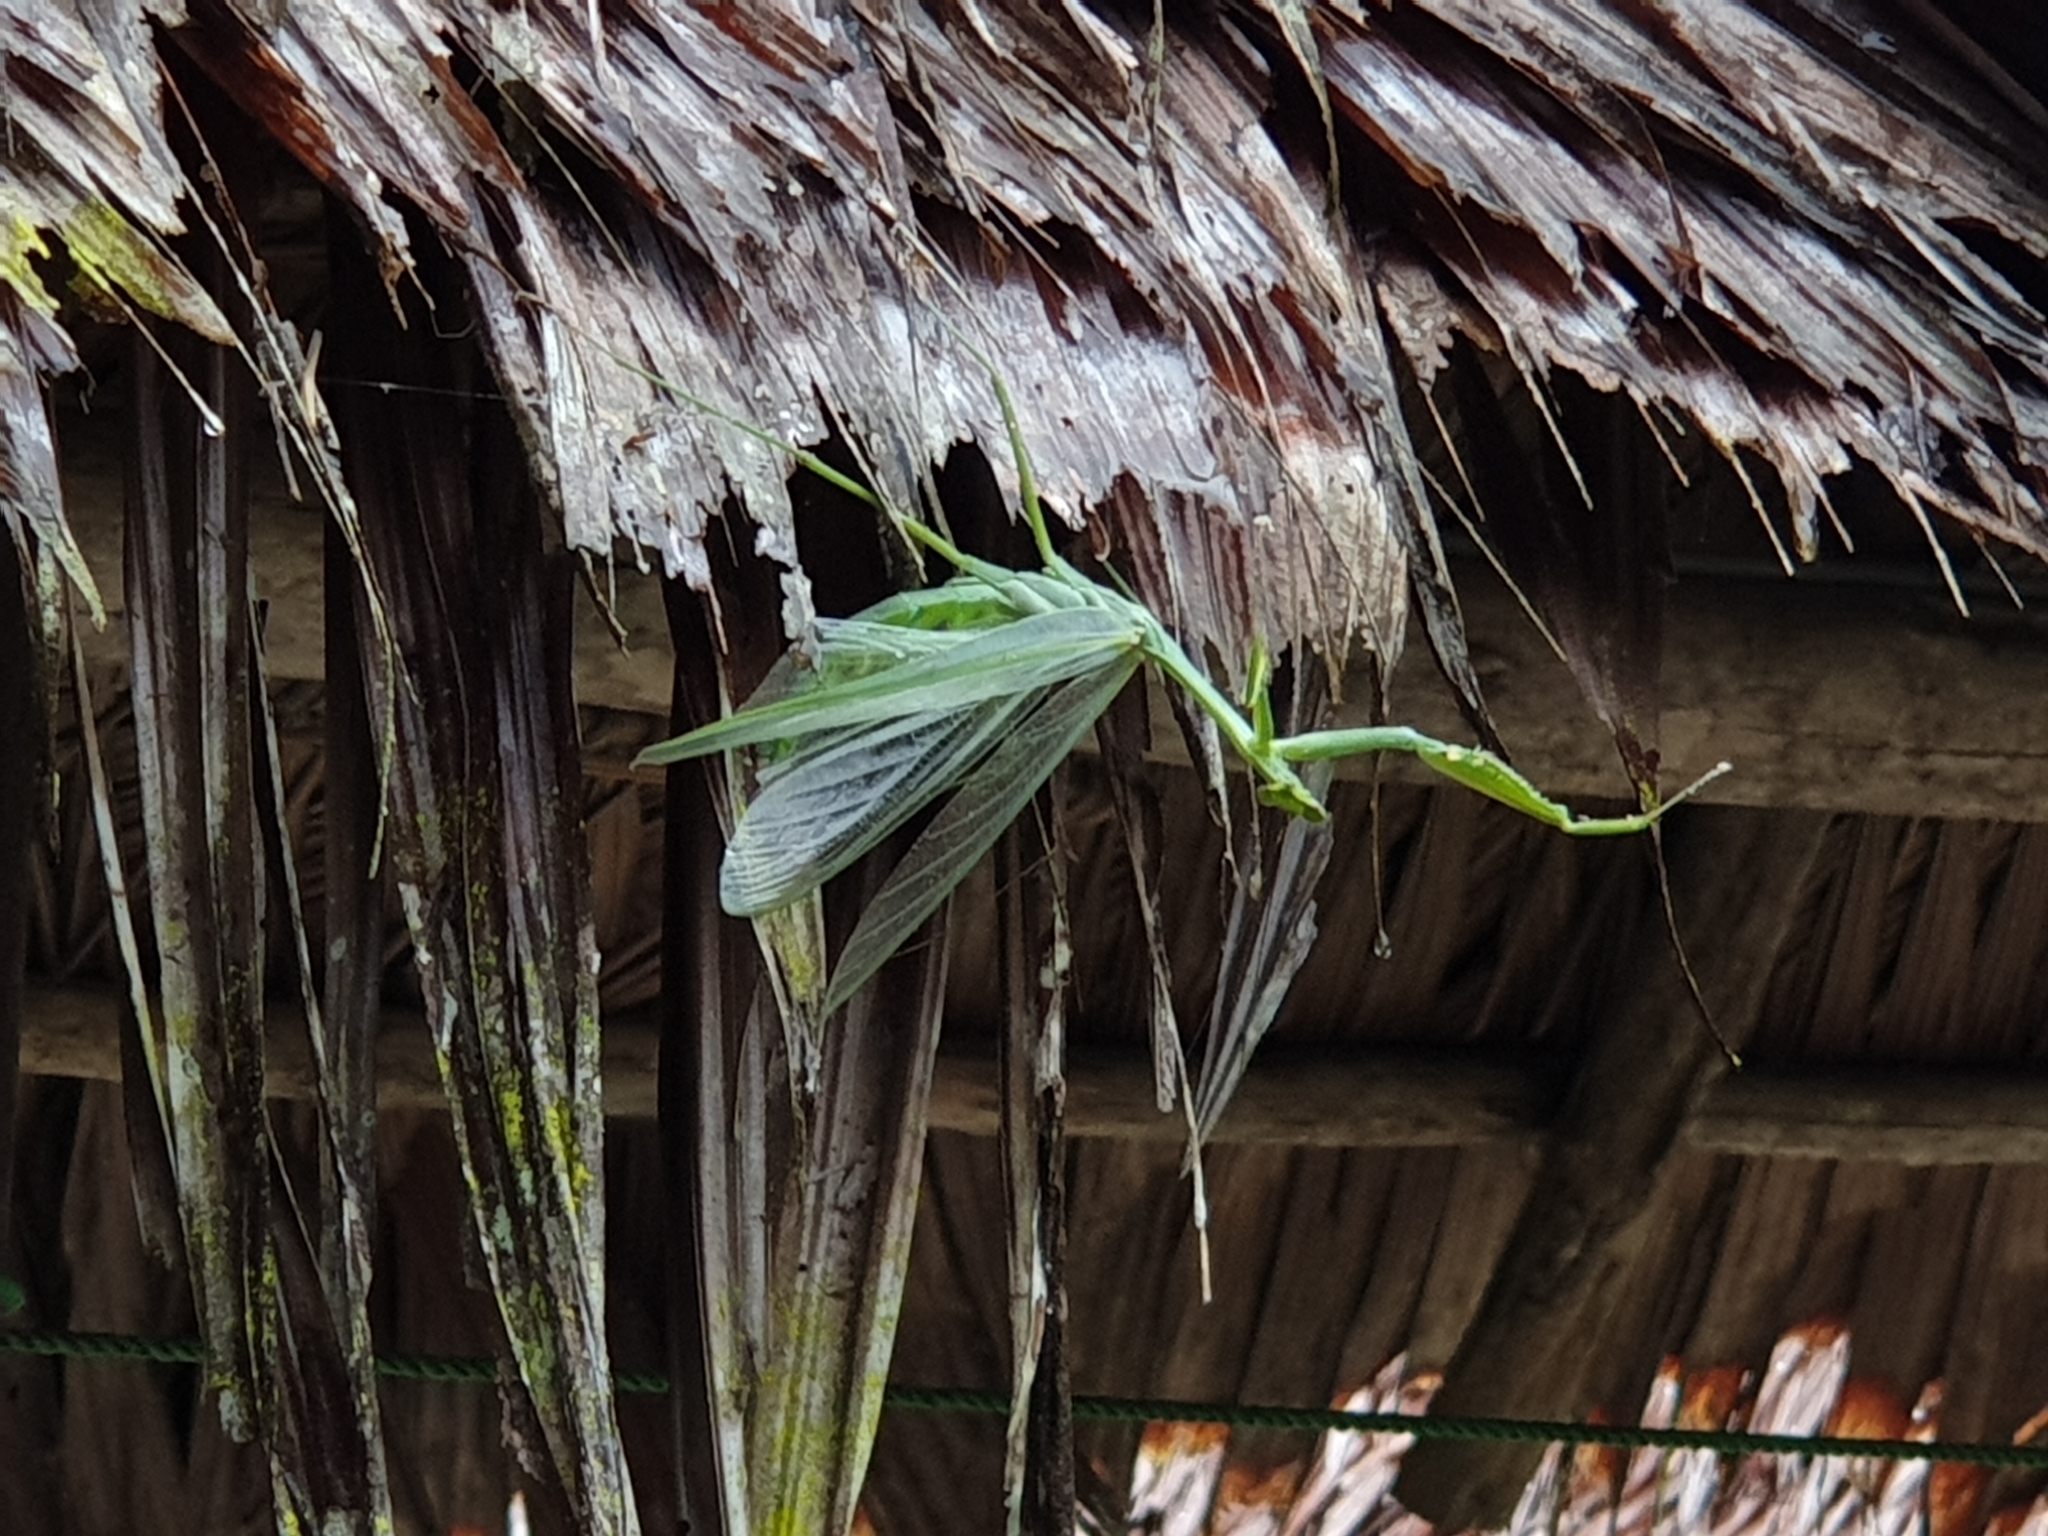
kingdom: Animalia
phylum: Arthropoda
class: Insecta
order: Mantodea
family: Photinaidae
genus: Macromantis
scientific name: Macromantis hyalina
